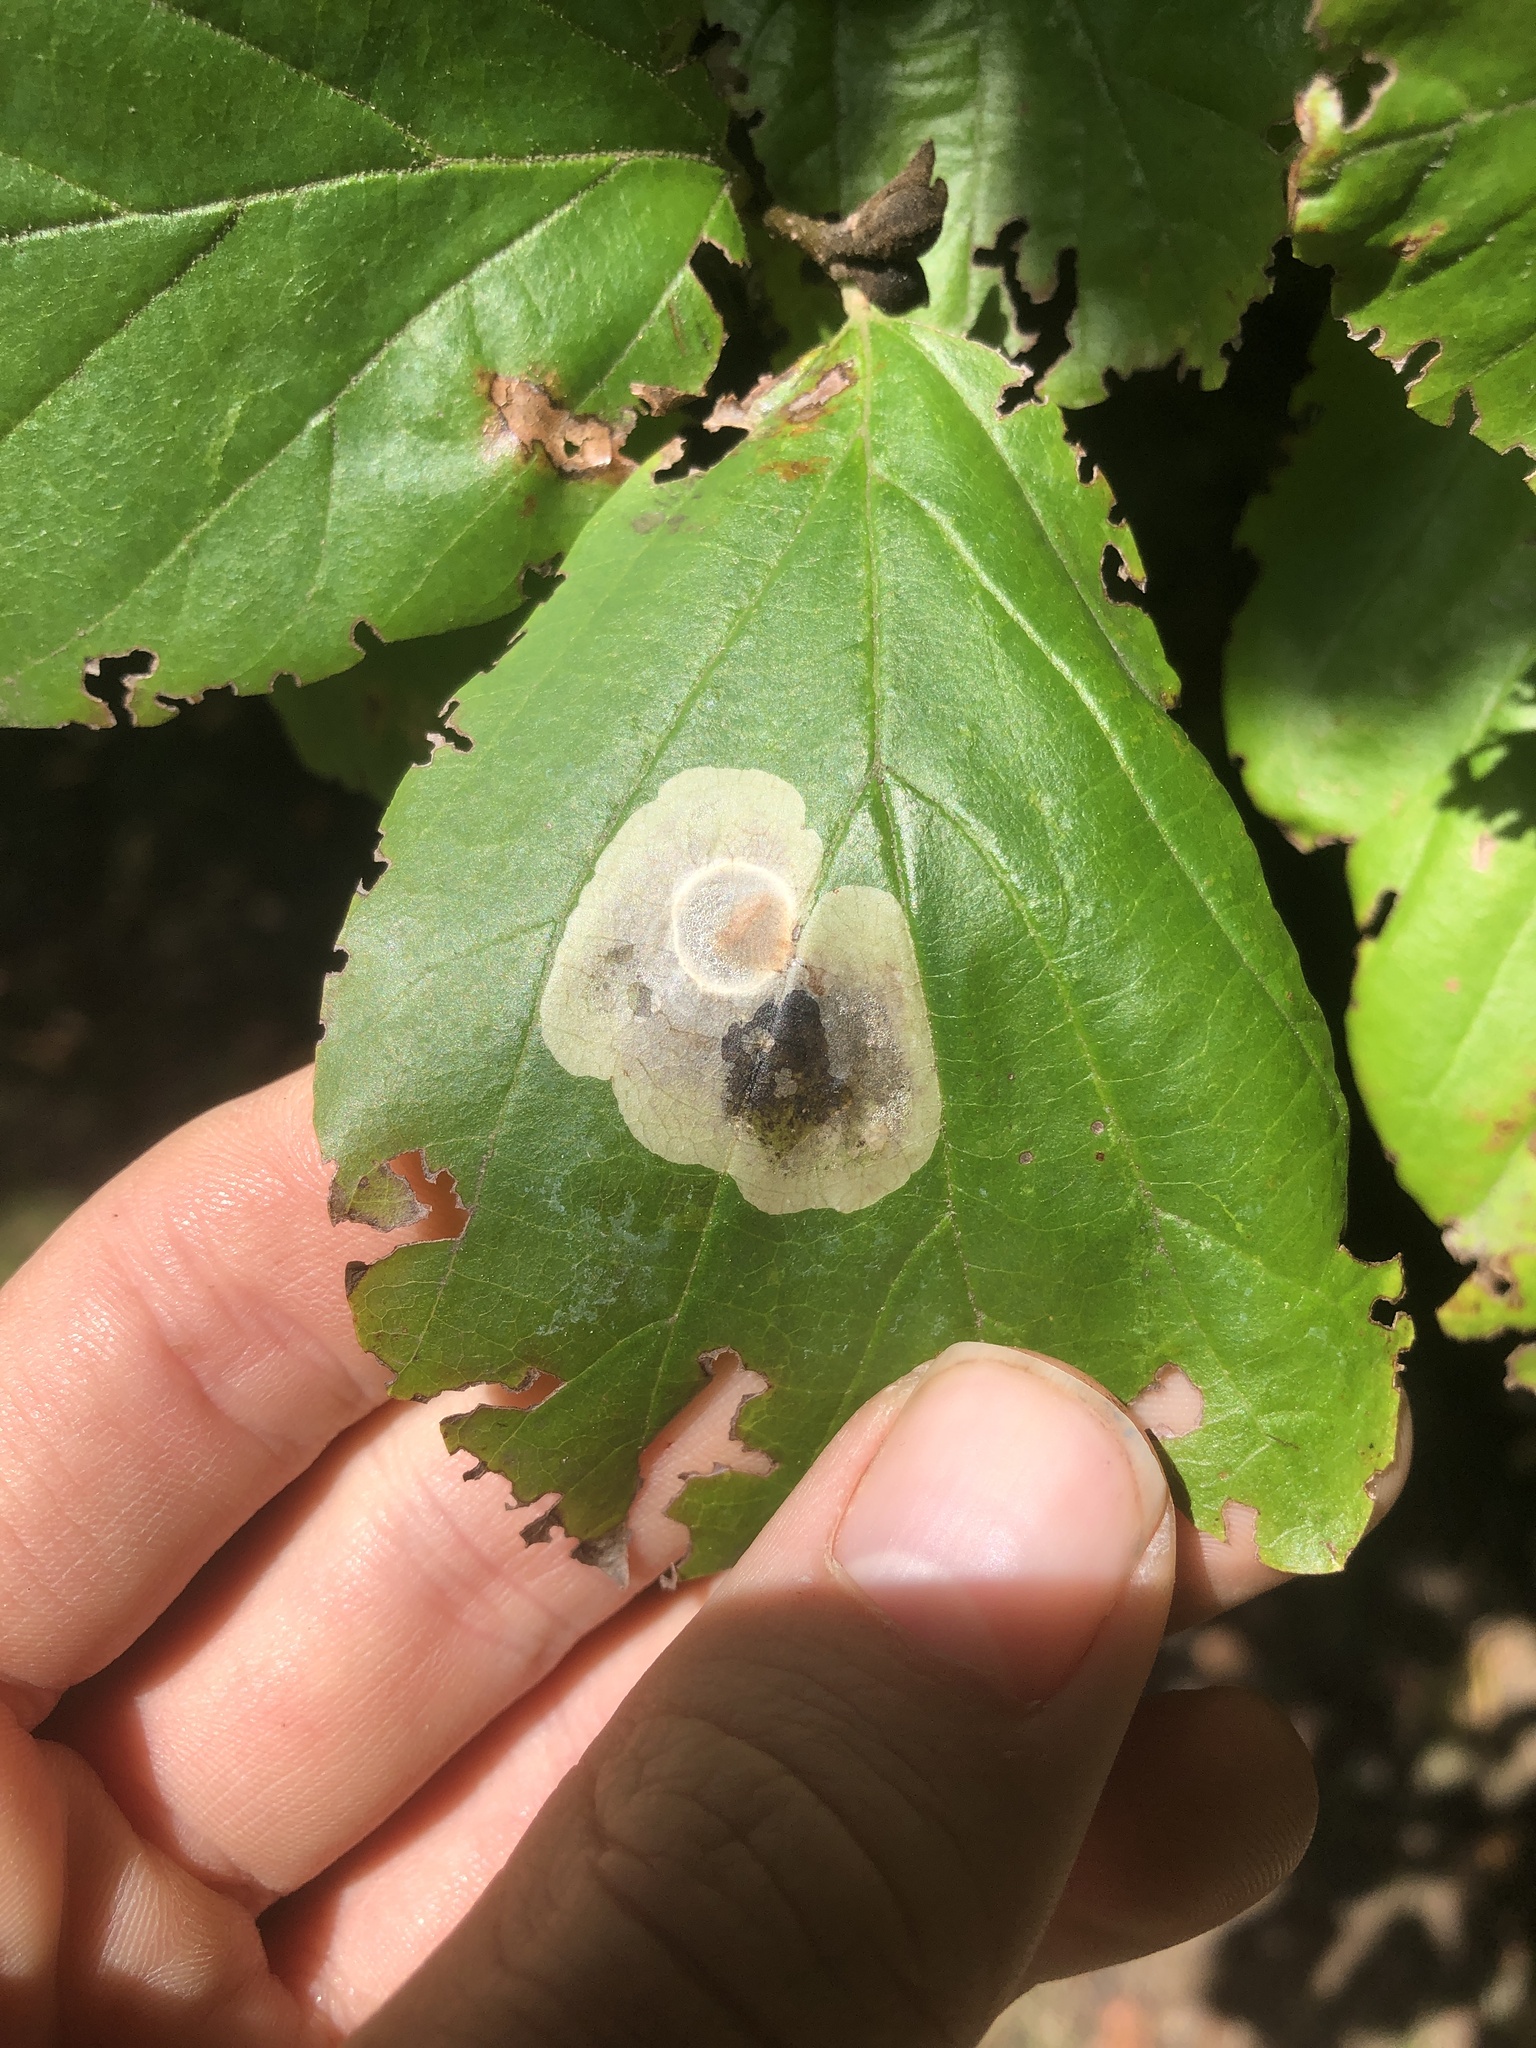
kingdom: Animalia
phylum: Arthropoda
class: Insecta
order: Lepidoptera
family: Gracillariidae
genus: Cameraria
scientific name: Cameraria hamameliella
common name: Witchhazel leafminer
